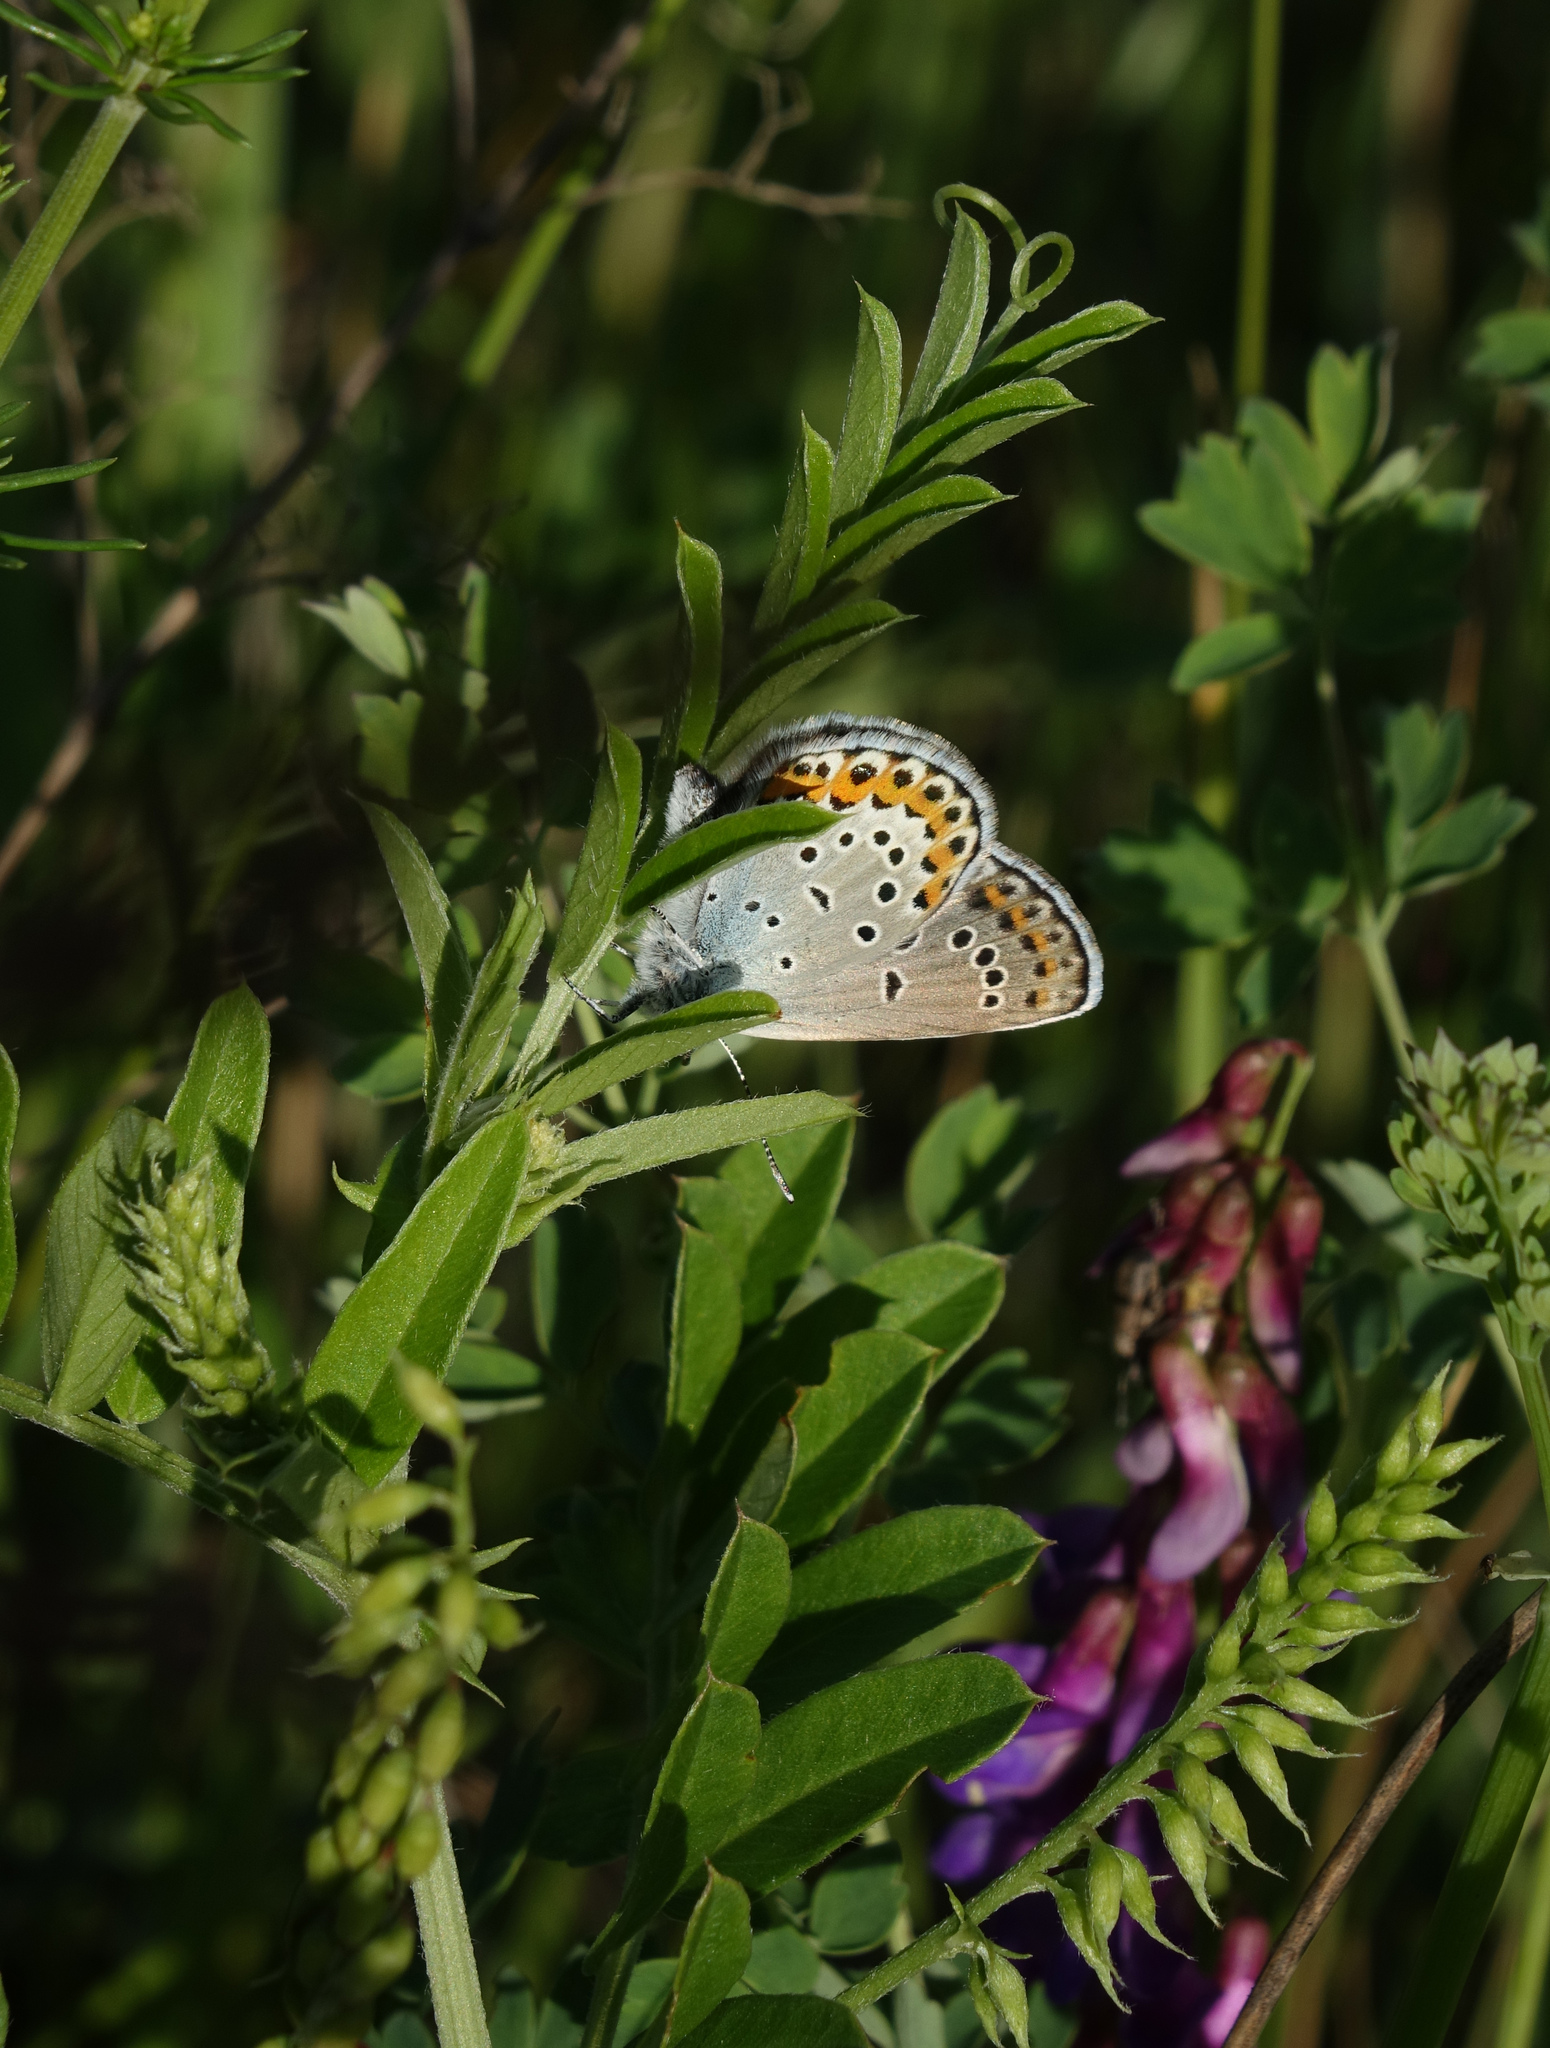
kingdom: Plantae
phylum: Tracheophyta
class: Magnoliopsida
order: Fabales
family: Fabaceae
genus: Vicia
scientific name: Vicia amoena
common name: Cheder ebs
